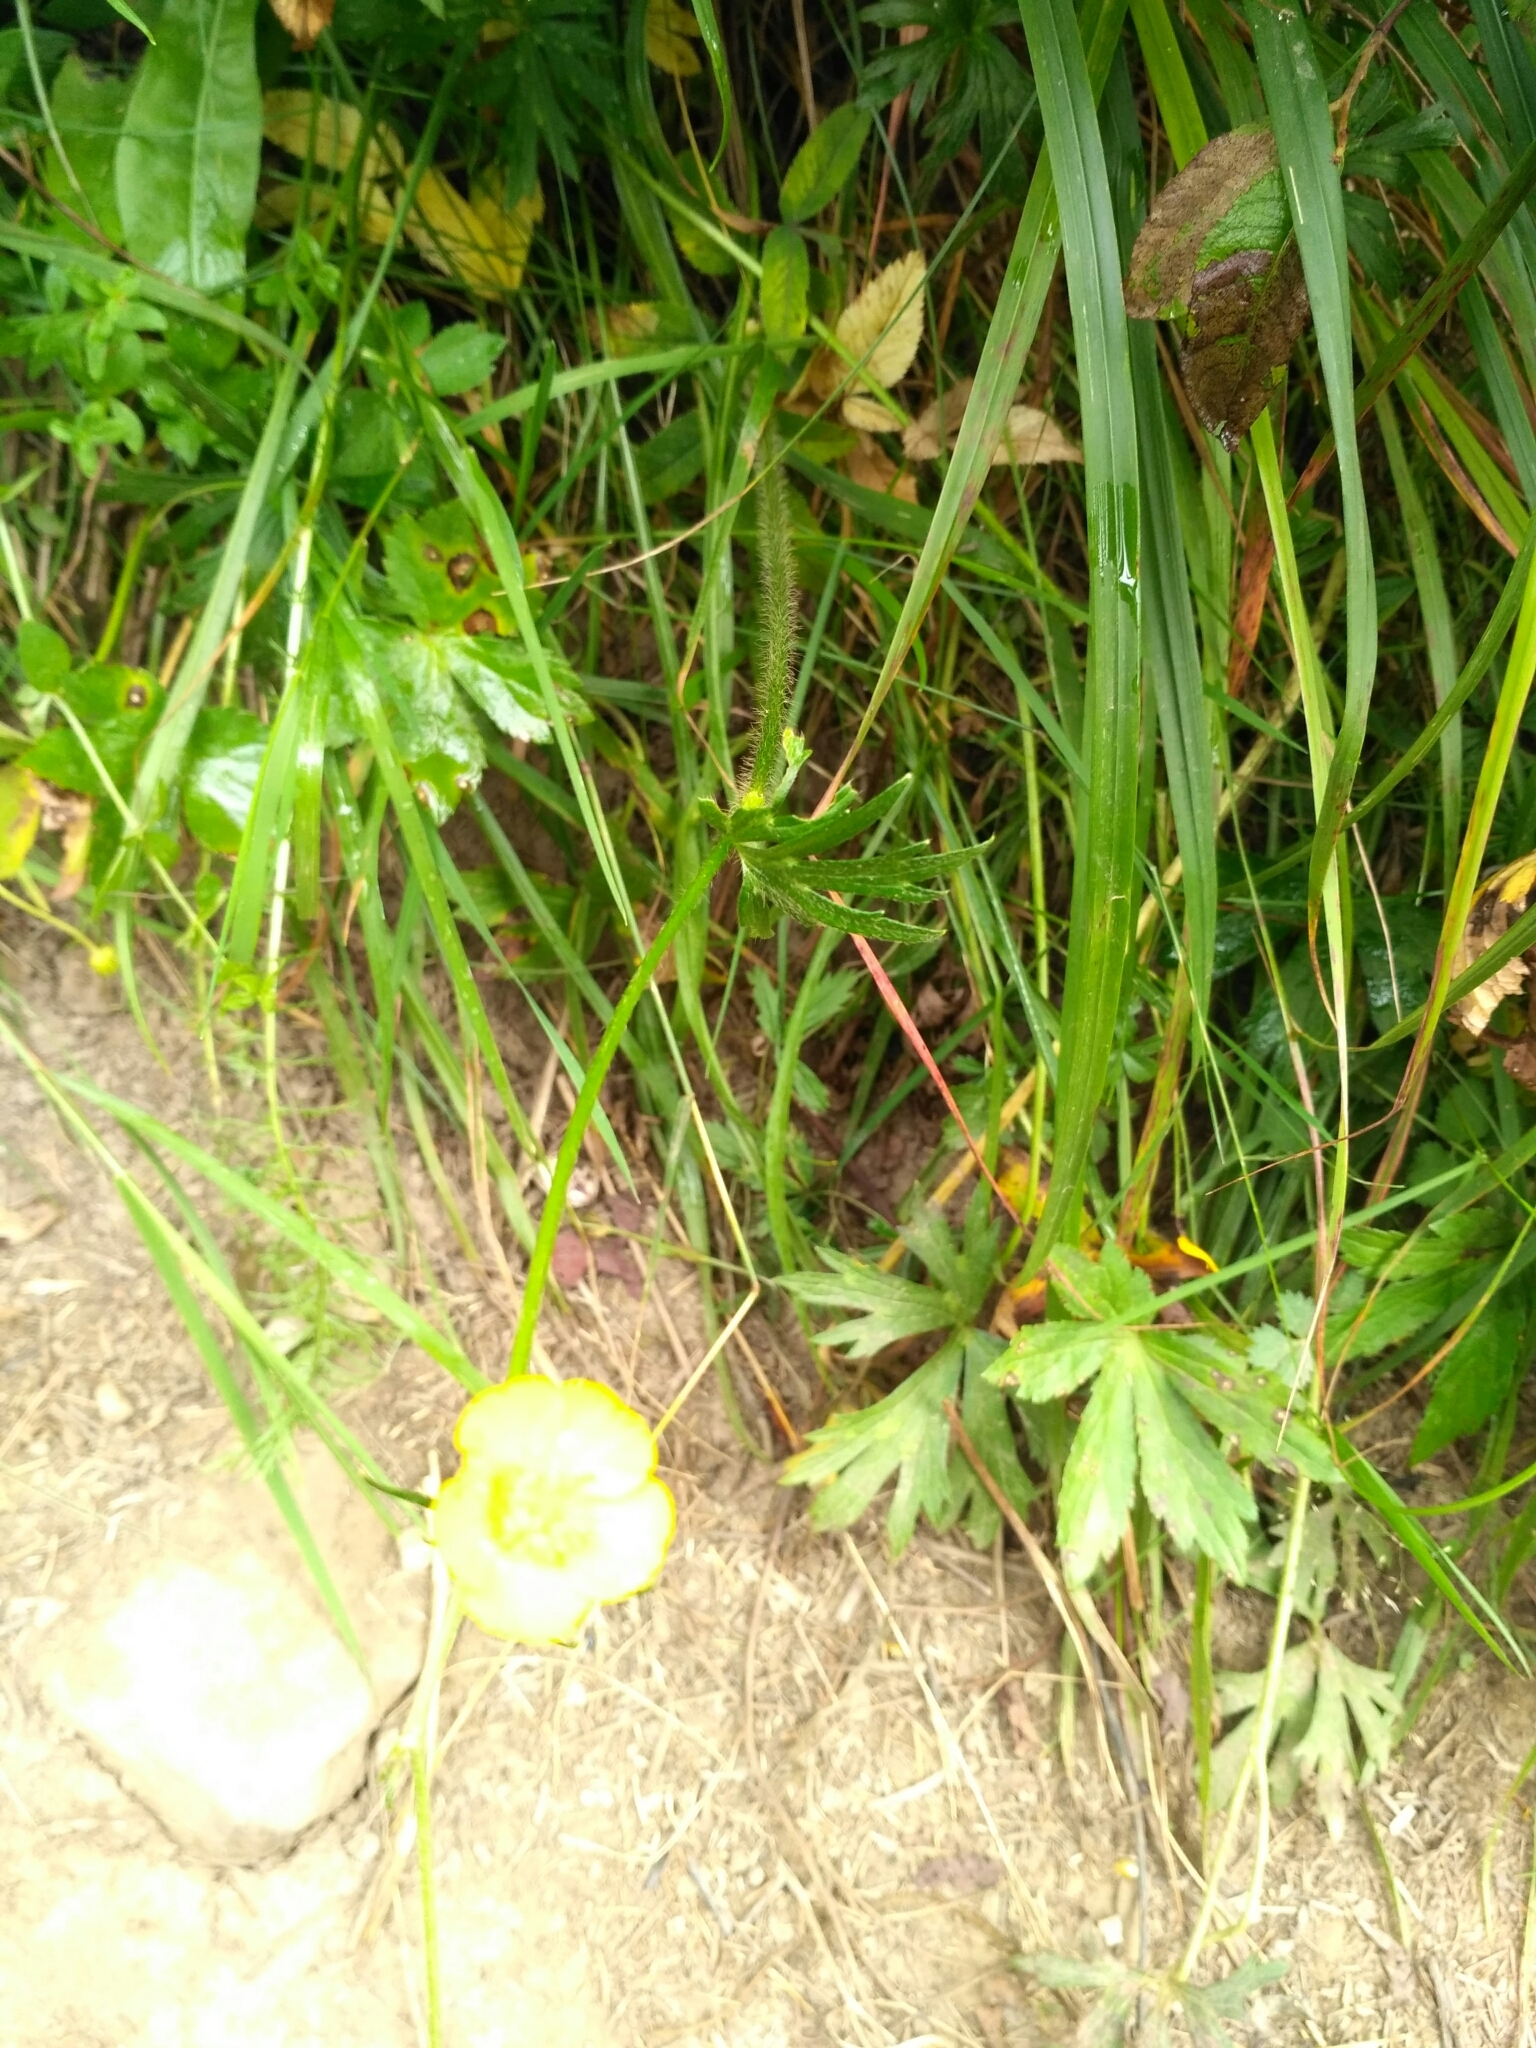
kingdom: Plantae
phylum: Tracheophyta
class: Magnoliopsida
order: Ranunculales
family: Ranunculaceae
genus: Ranunculus
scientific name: Ranunculus polyanthemos
